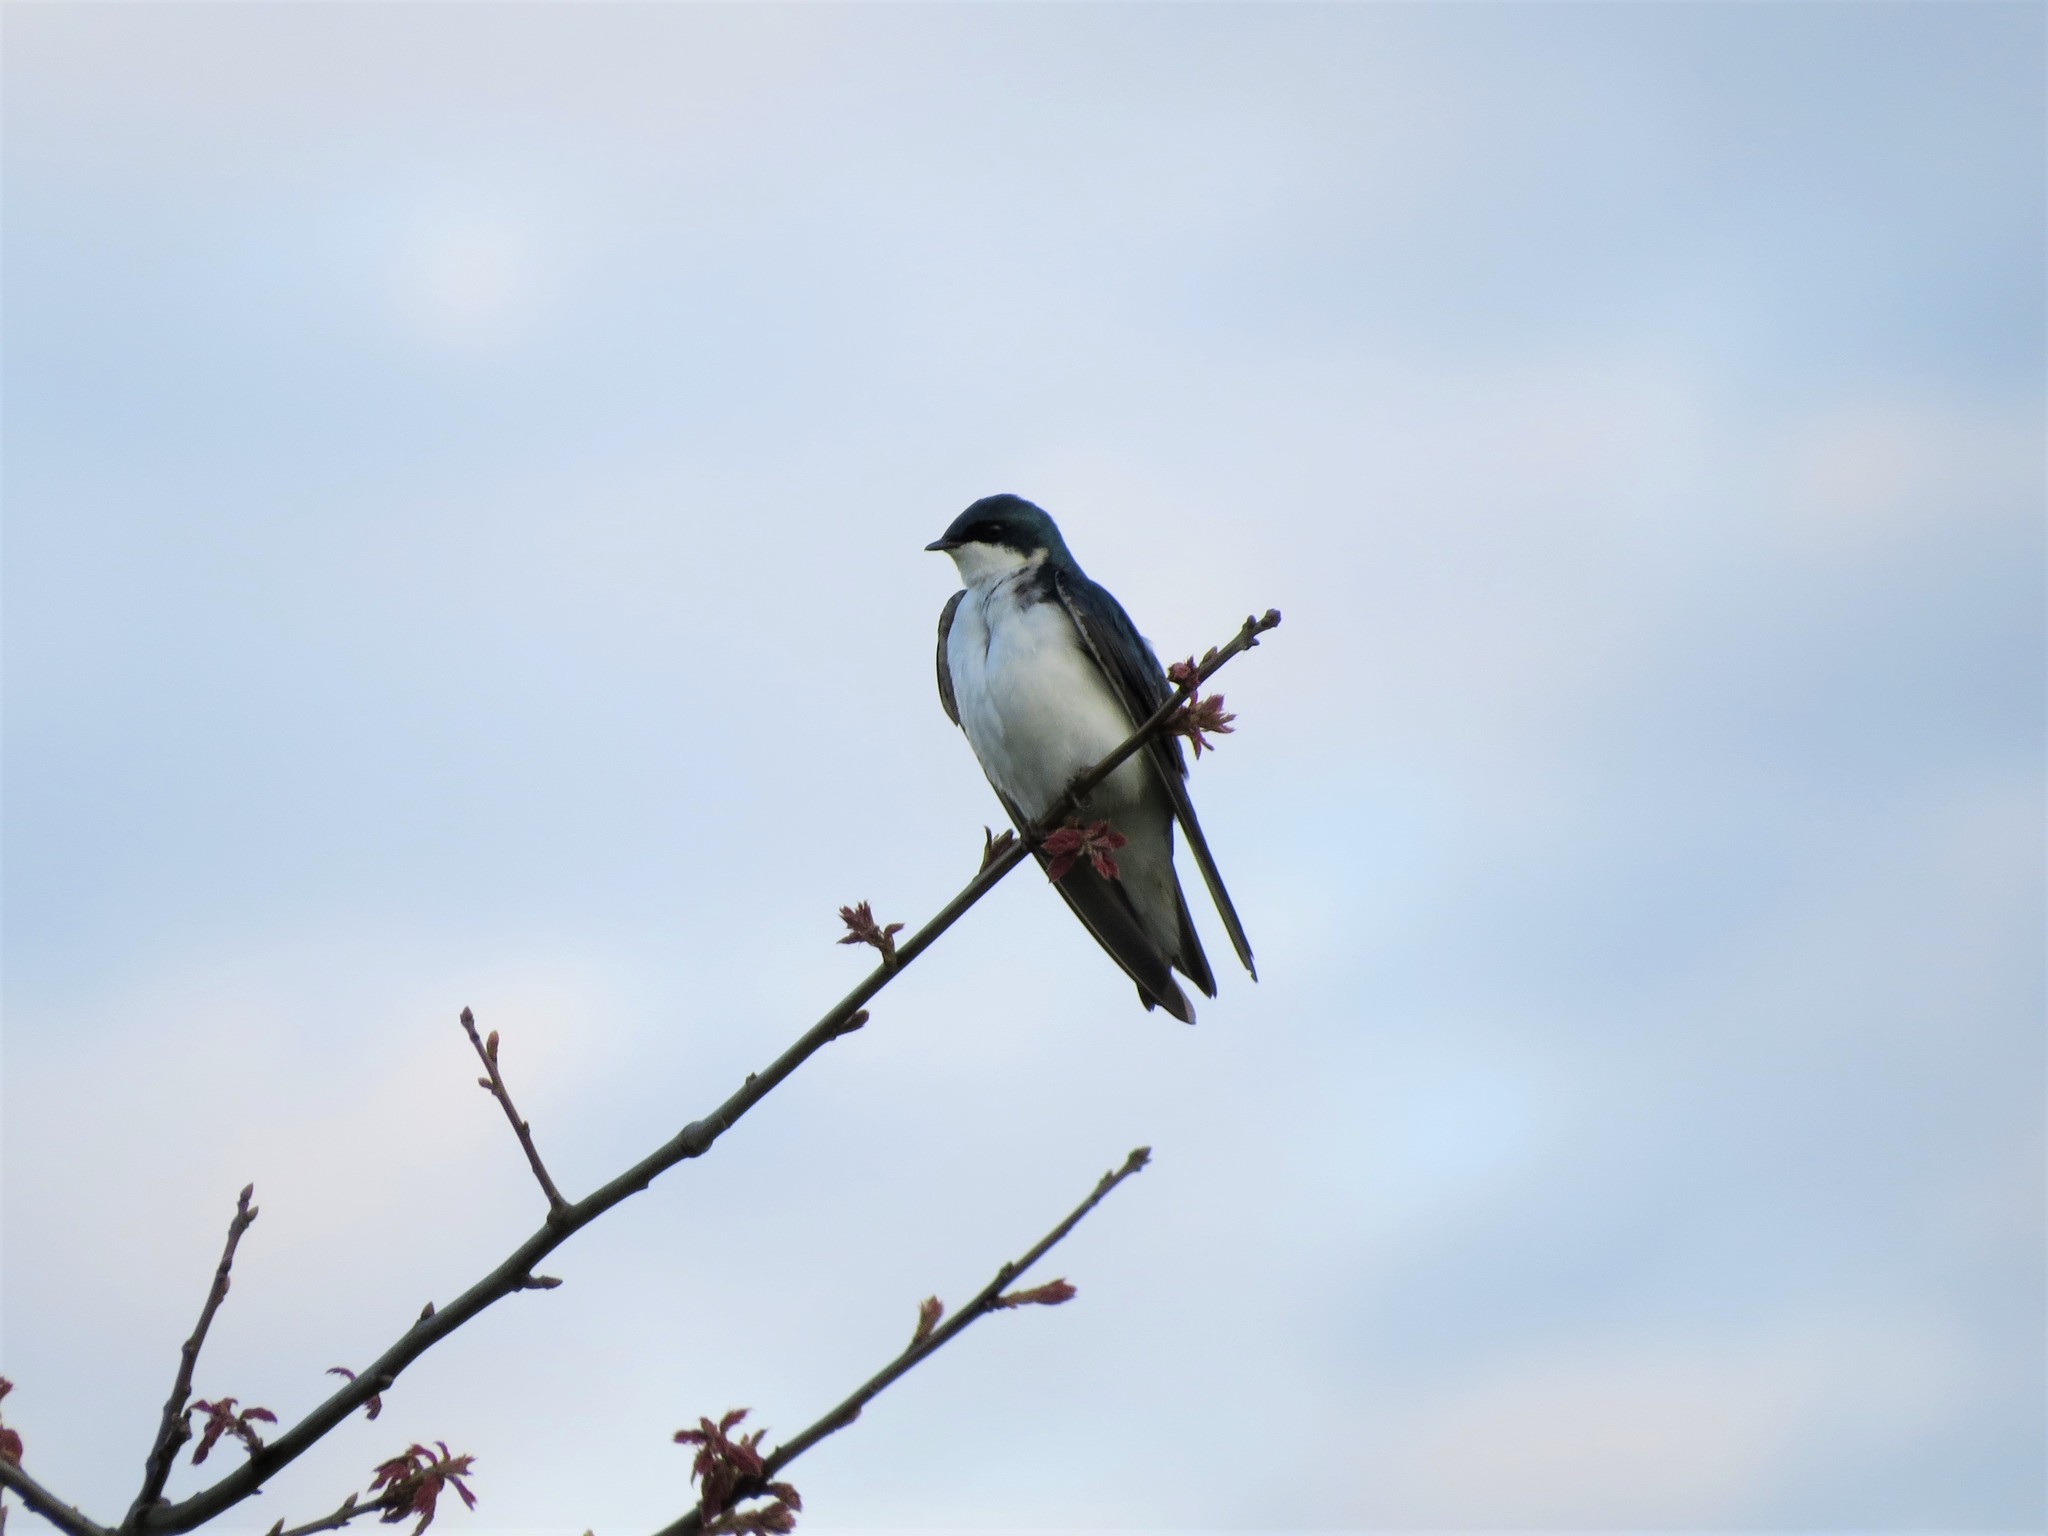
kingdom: Animalia
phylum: Chordata
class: Aves
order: Passeriformes
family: Hirundinidae
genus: Tachycineta
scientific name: Tachycineta bicolor
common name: Tree swallow
